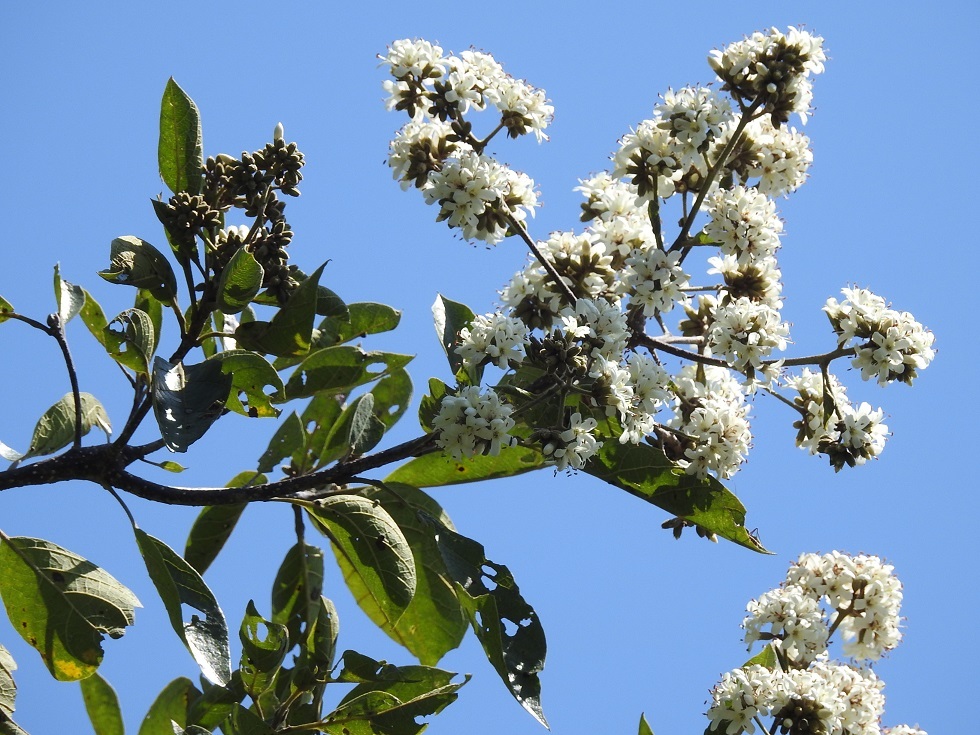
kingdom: Plantae
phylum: Tracheophyta
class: Magnoliopsida
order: Boraginales
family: Cordiaceae
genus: Cordia
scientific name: Cordia alliodora
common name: Spanish elm
